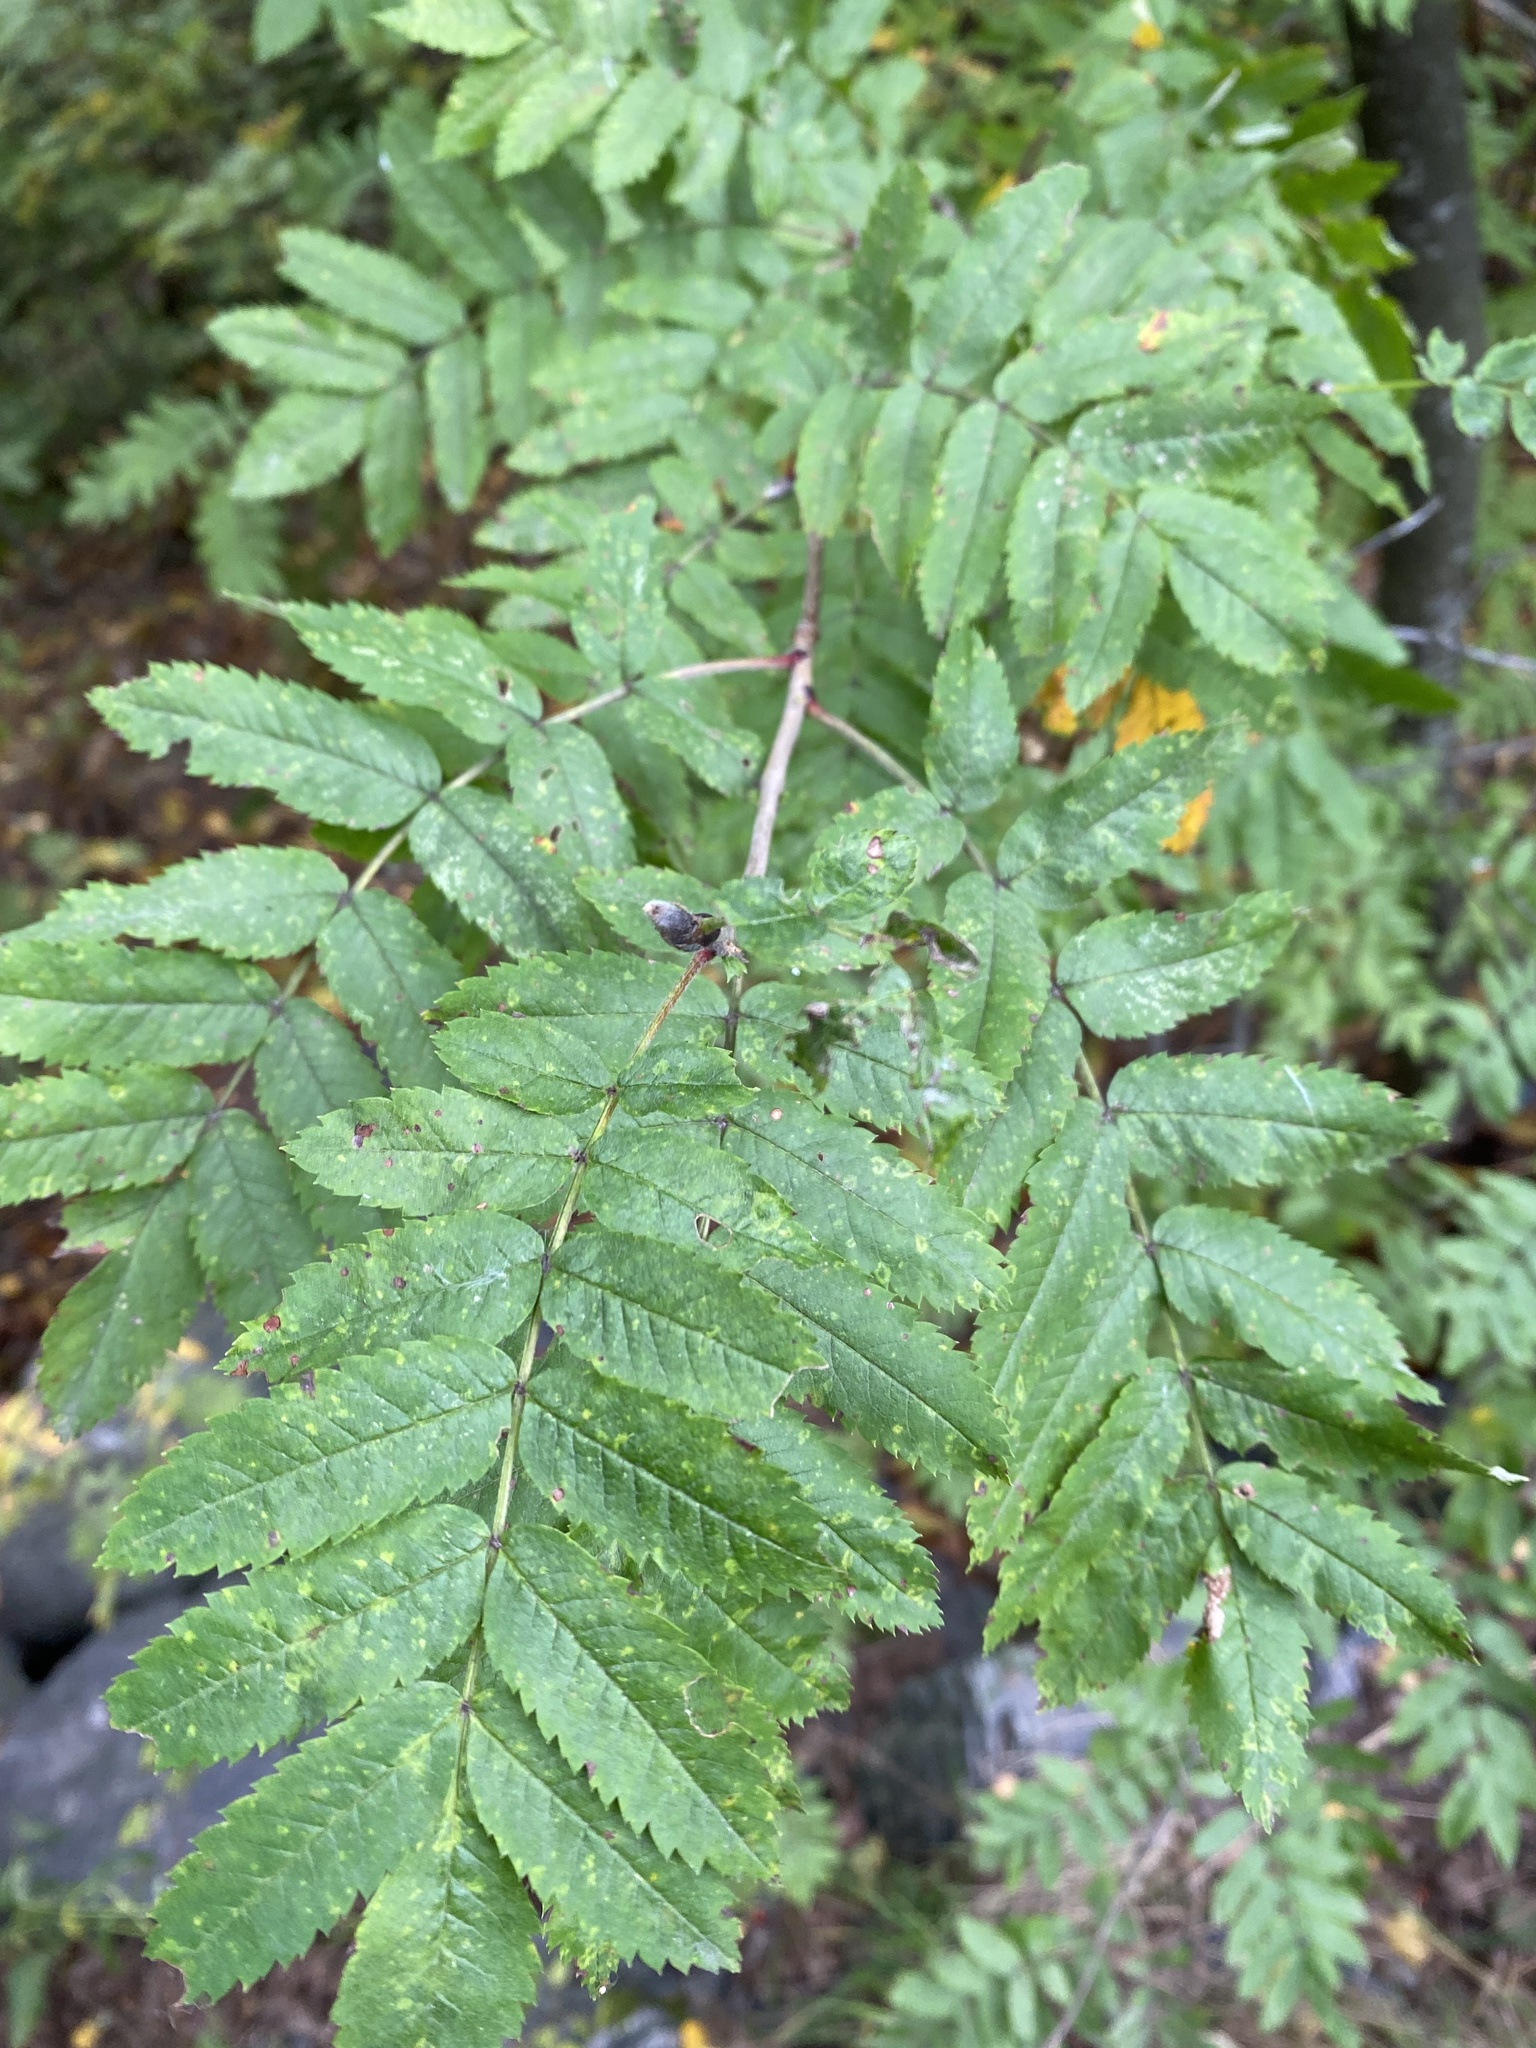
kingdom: Viruses
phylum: Negarnaviricota
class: Ellioviricetes
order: Bunyavirales
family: Fimoviridae
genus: Emaravirus
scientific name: Emaravirus sorbi
